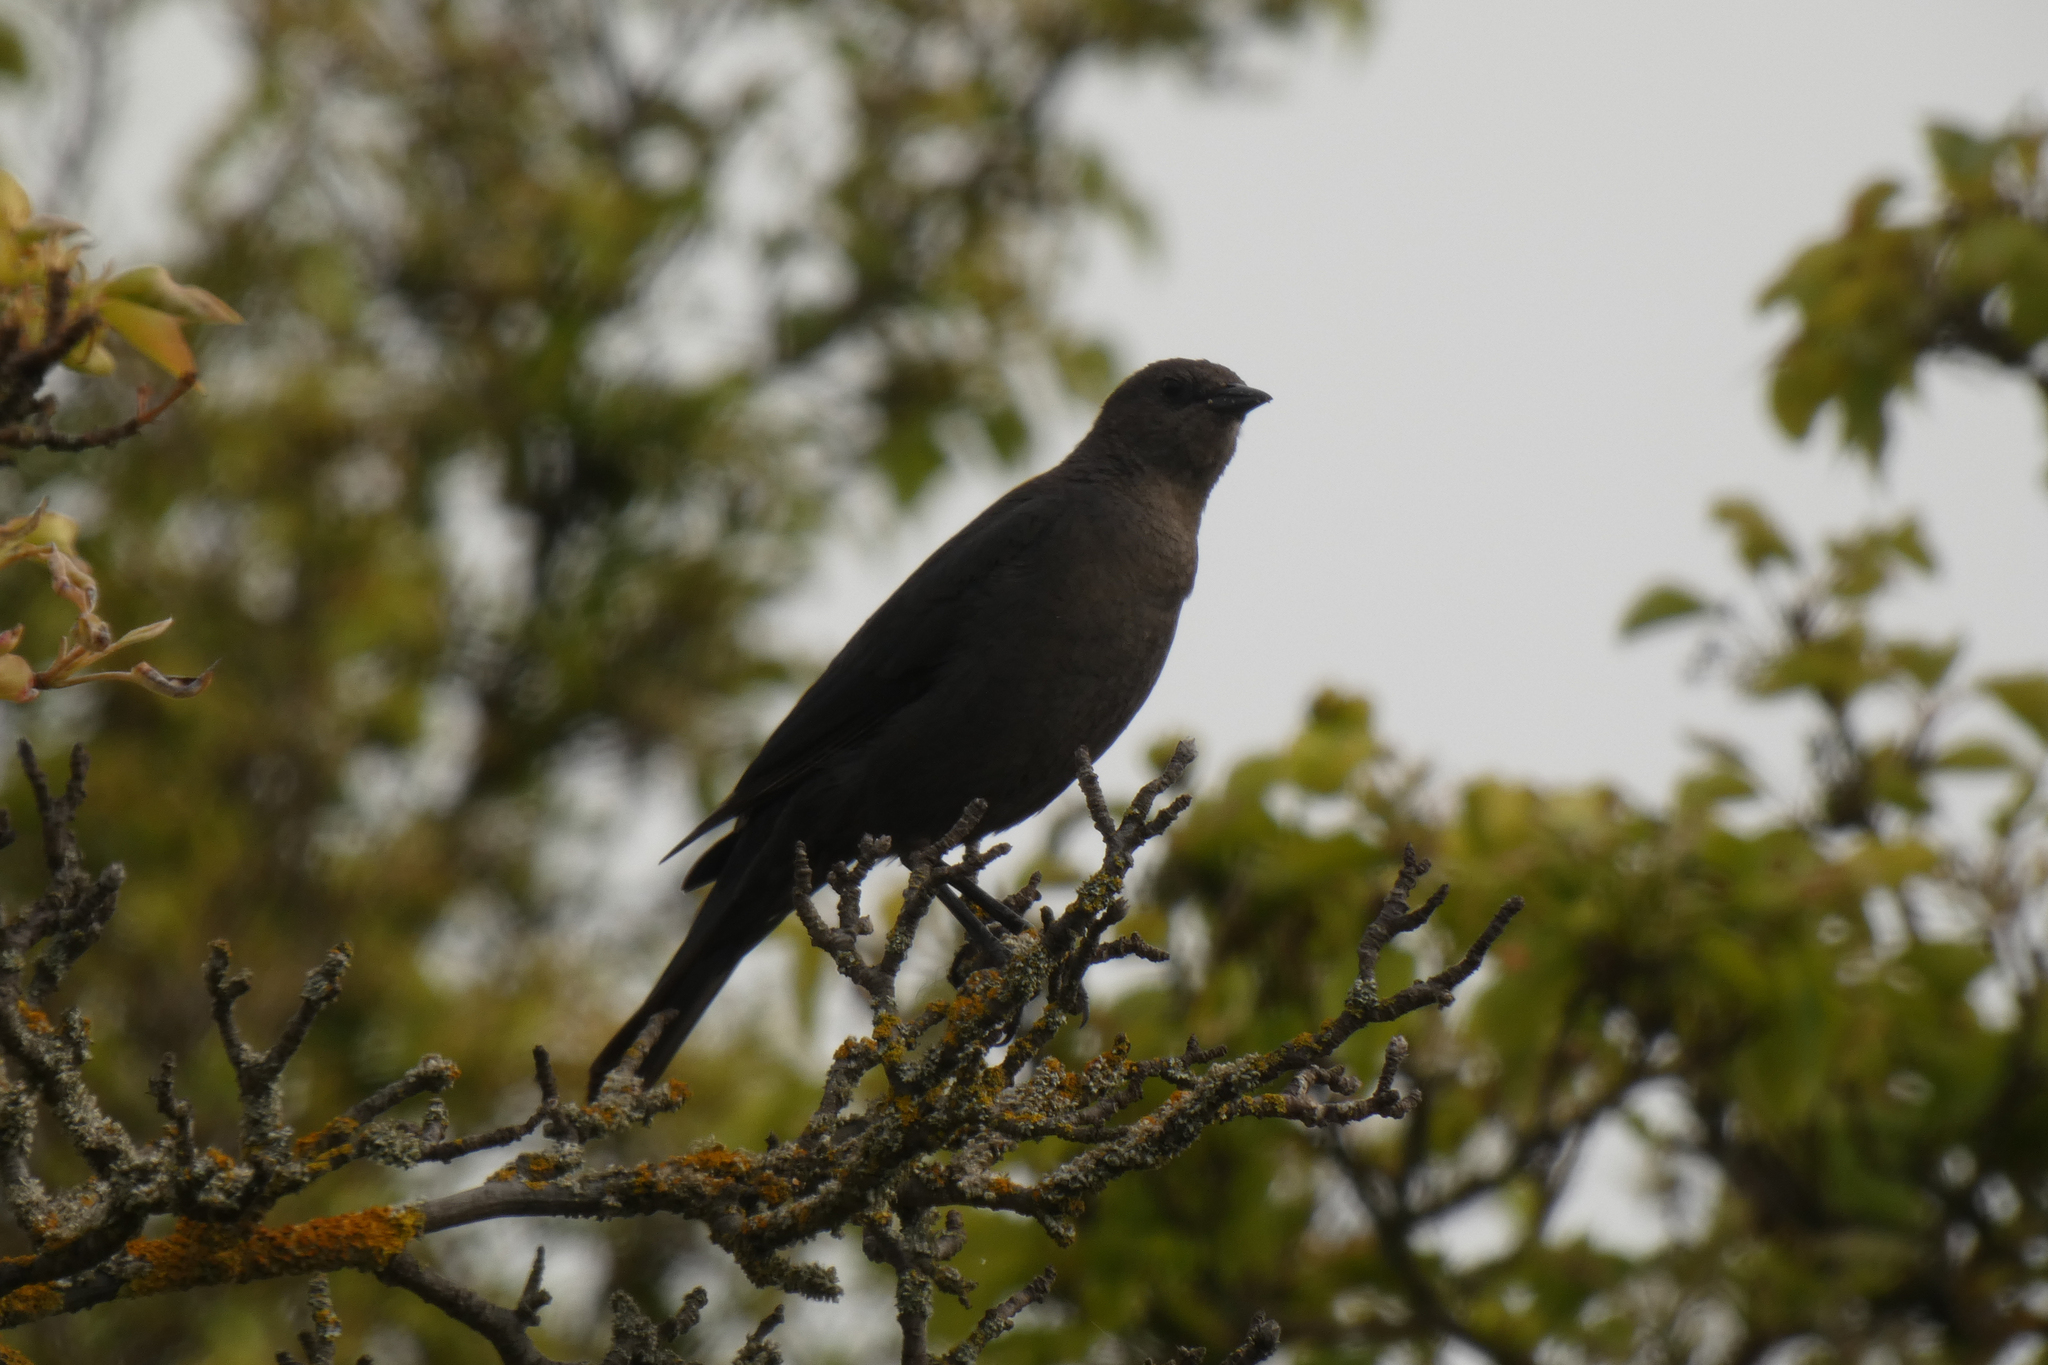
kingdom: Animalia
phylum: Chordata
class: Aves
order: Passeriformes
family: Icteridae
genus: Euphagus
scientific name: Euphagus cyanocephalus
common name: Brewer's blackbird
